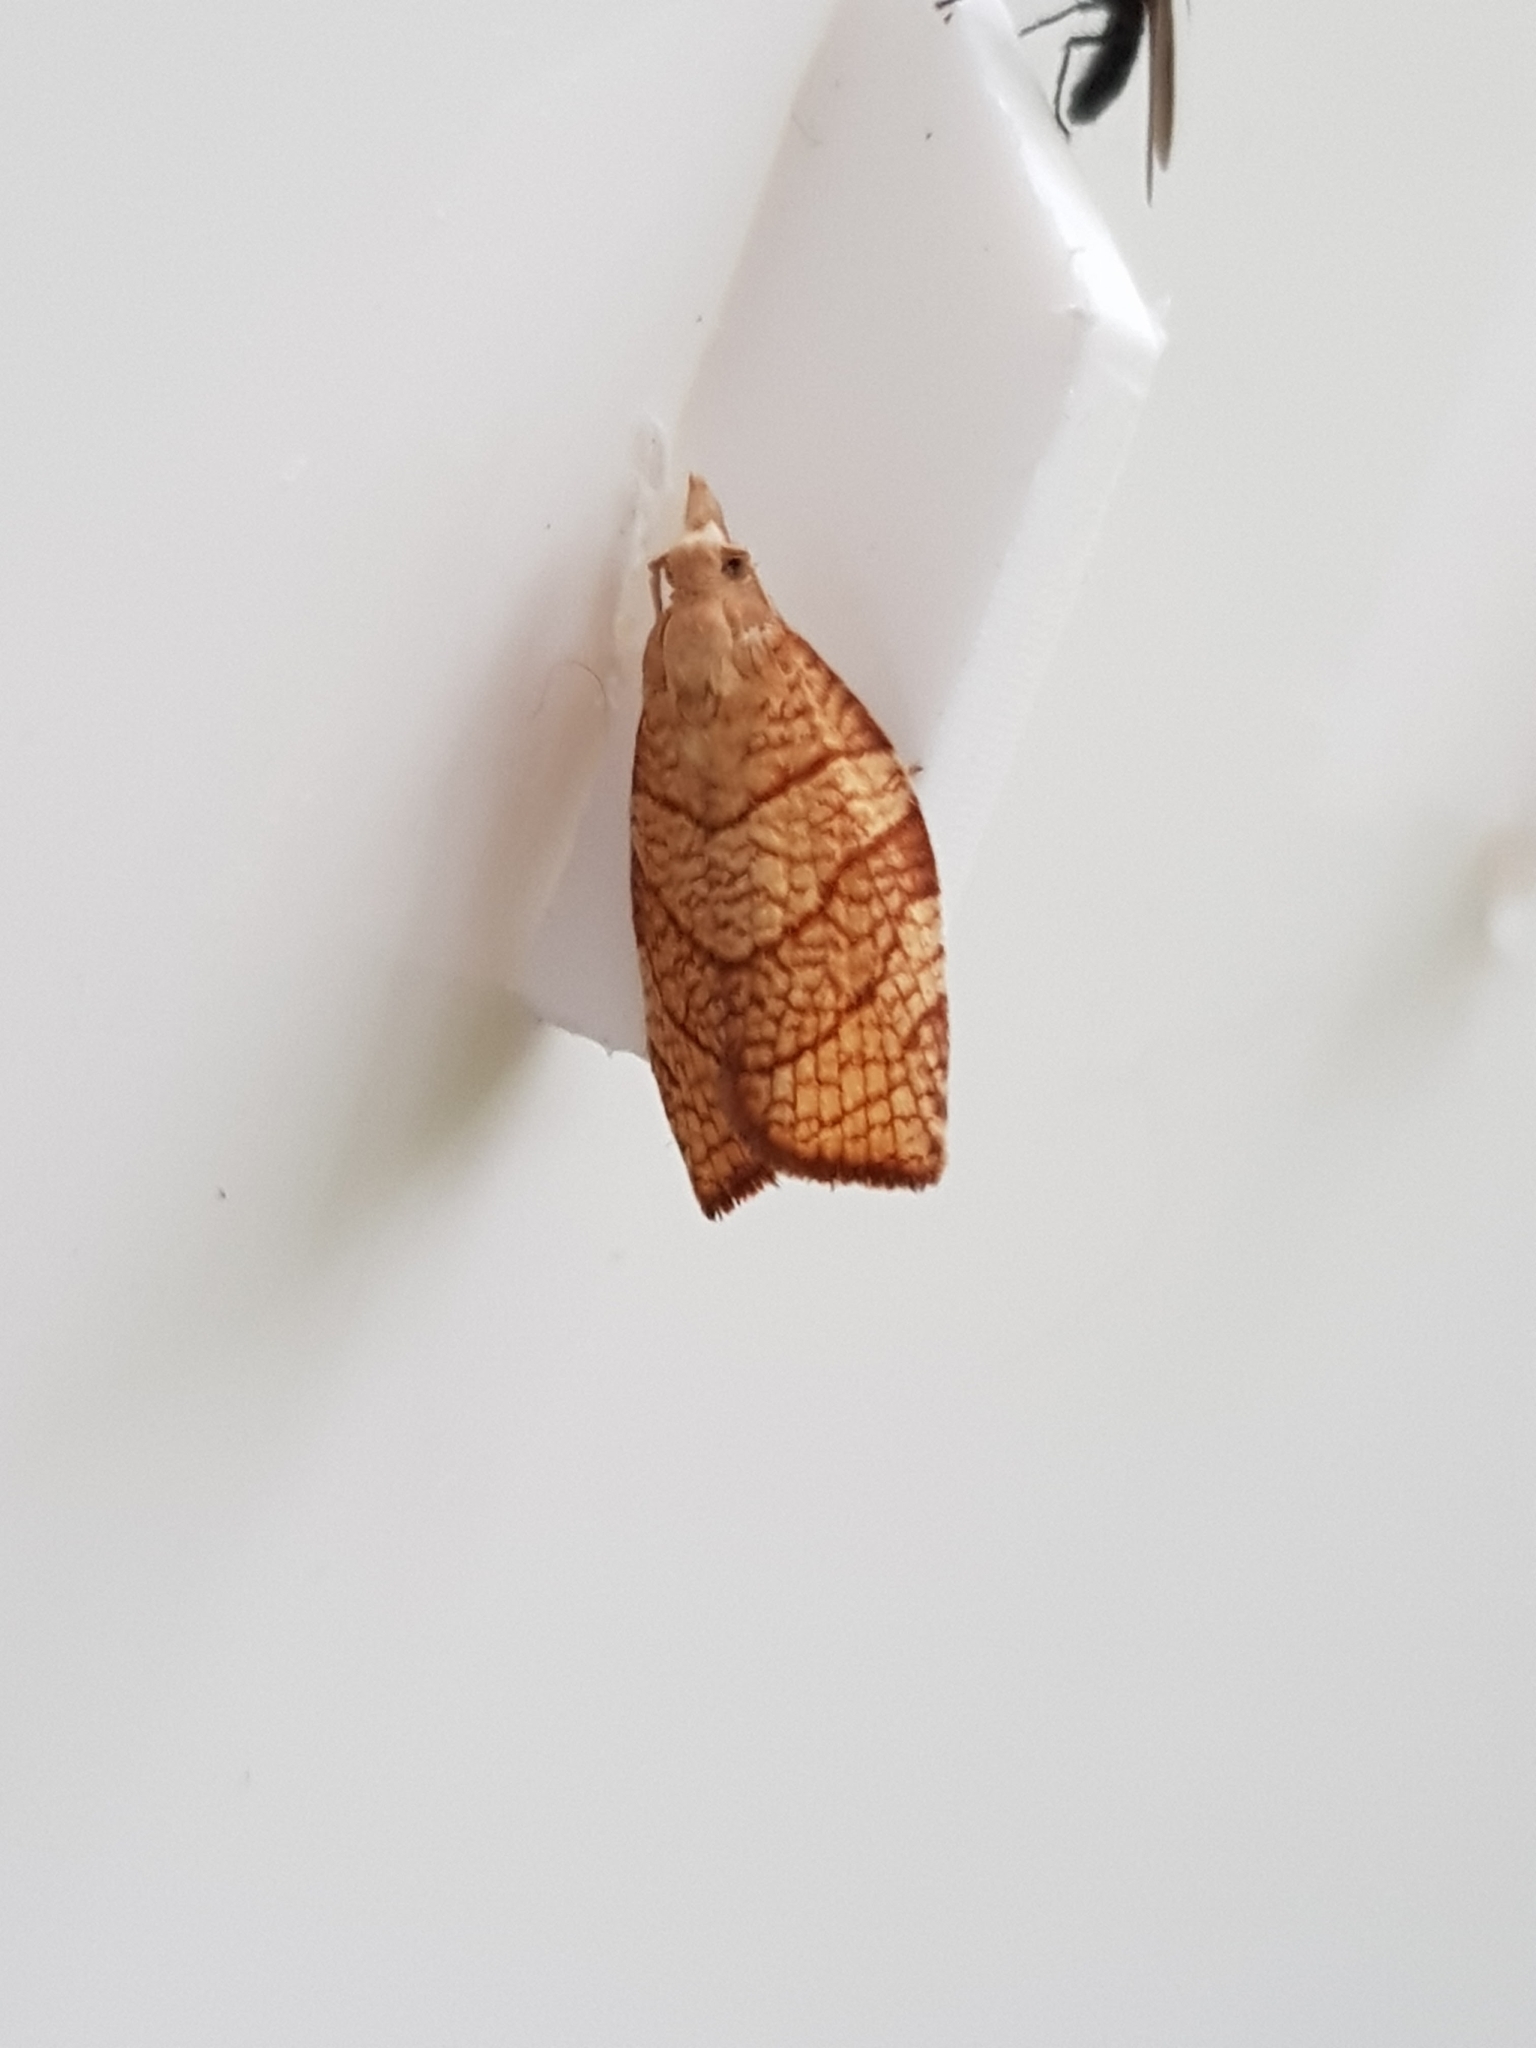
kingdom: Animalia
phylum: Arthropoda
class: Insecta
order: Lepidoptera
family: Tortricidae
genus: Pandemis
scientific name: Pandemis corylana
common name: Chequered fruit-tree tortrix
